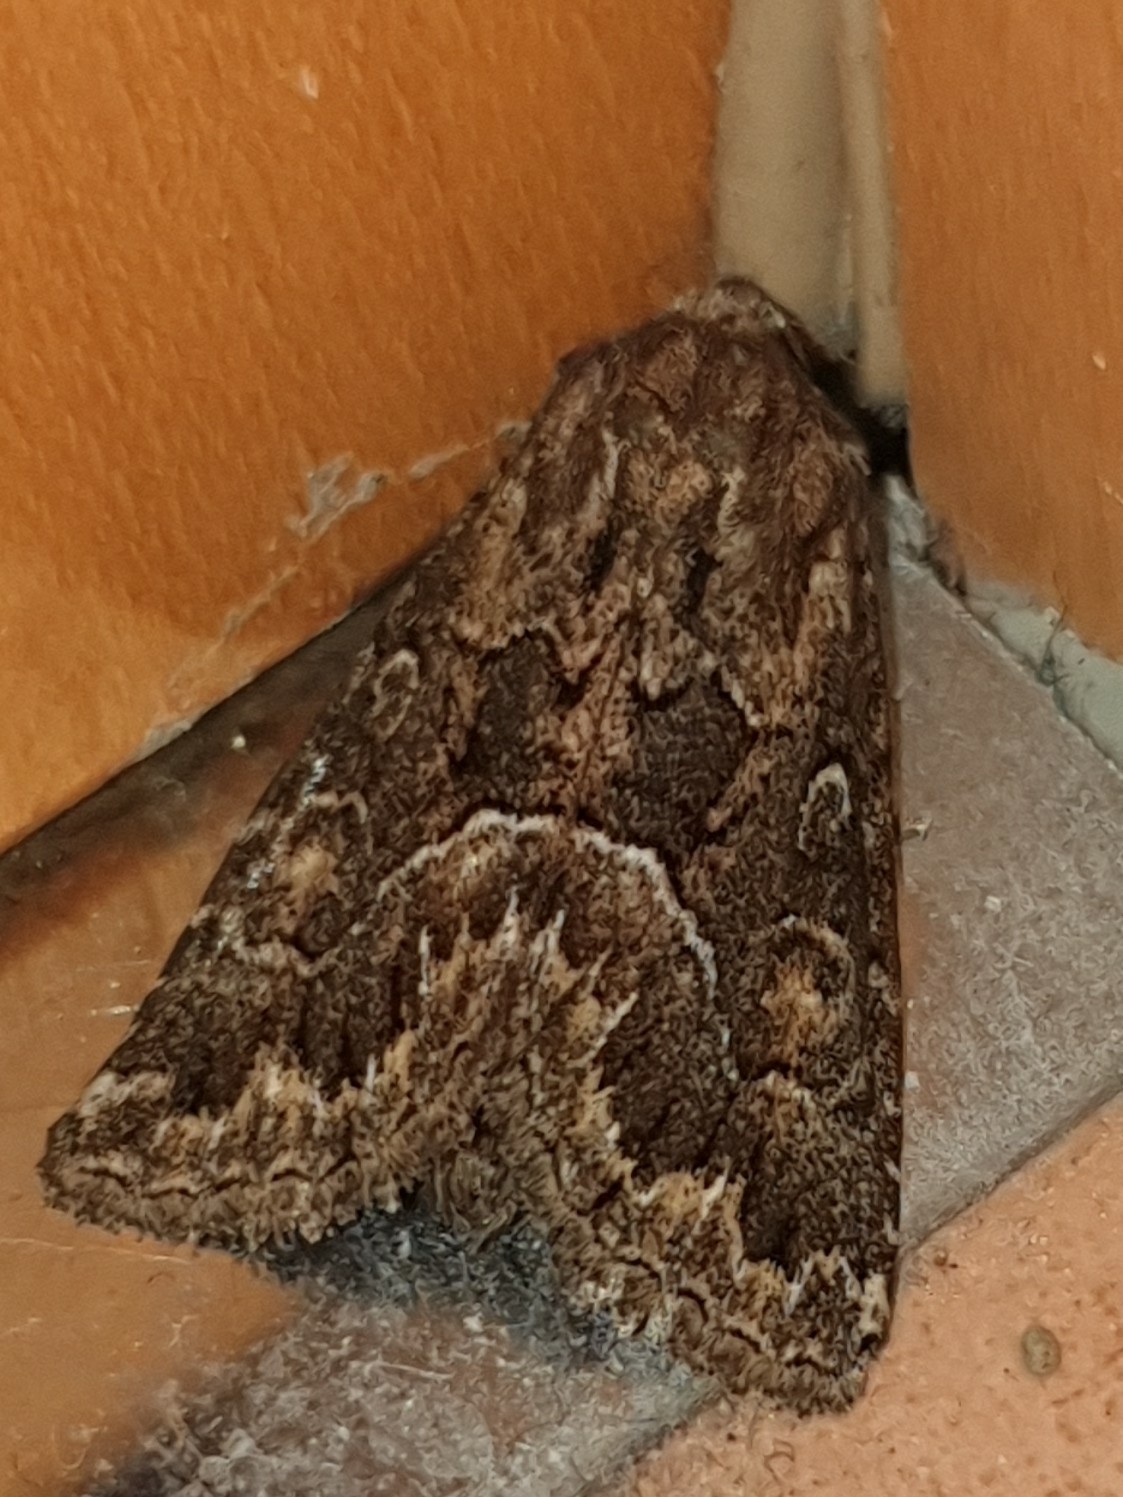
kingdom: Animalia
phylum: Arthropoda
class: Insecta
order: Lepidoptera
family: Noctuidae
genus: Thalpophila
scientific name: Thalpophila matura
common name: Straw underwing
